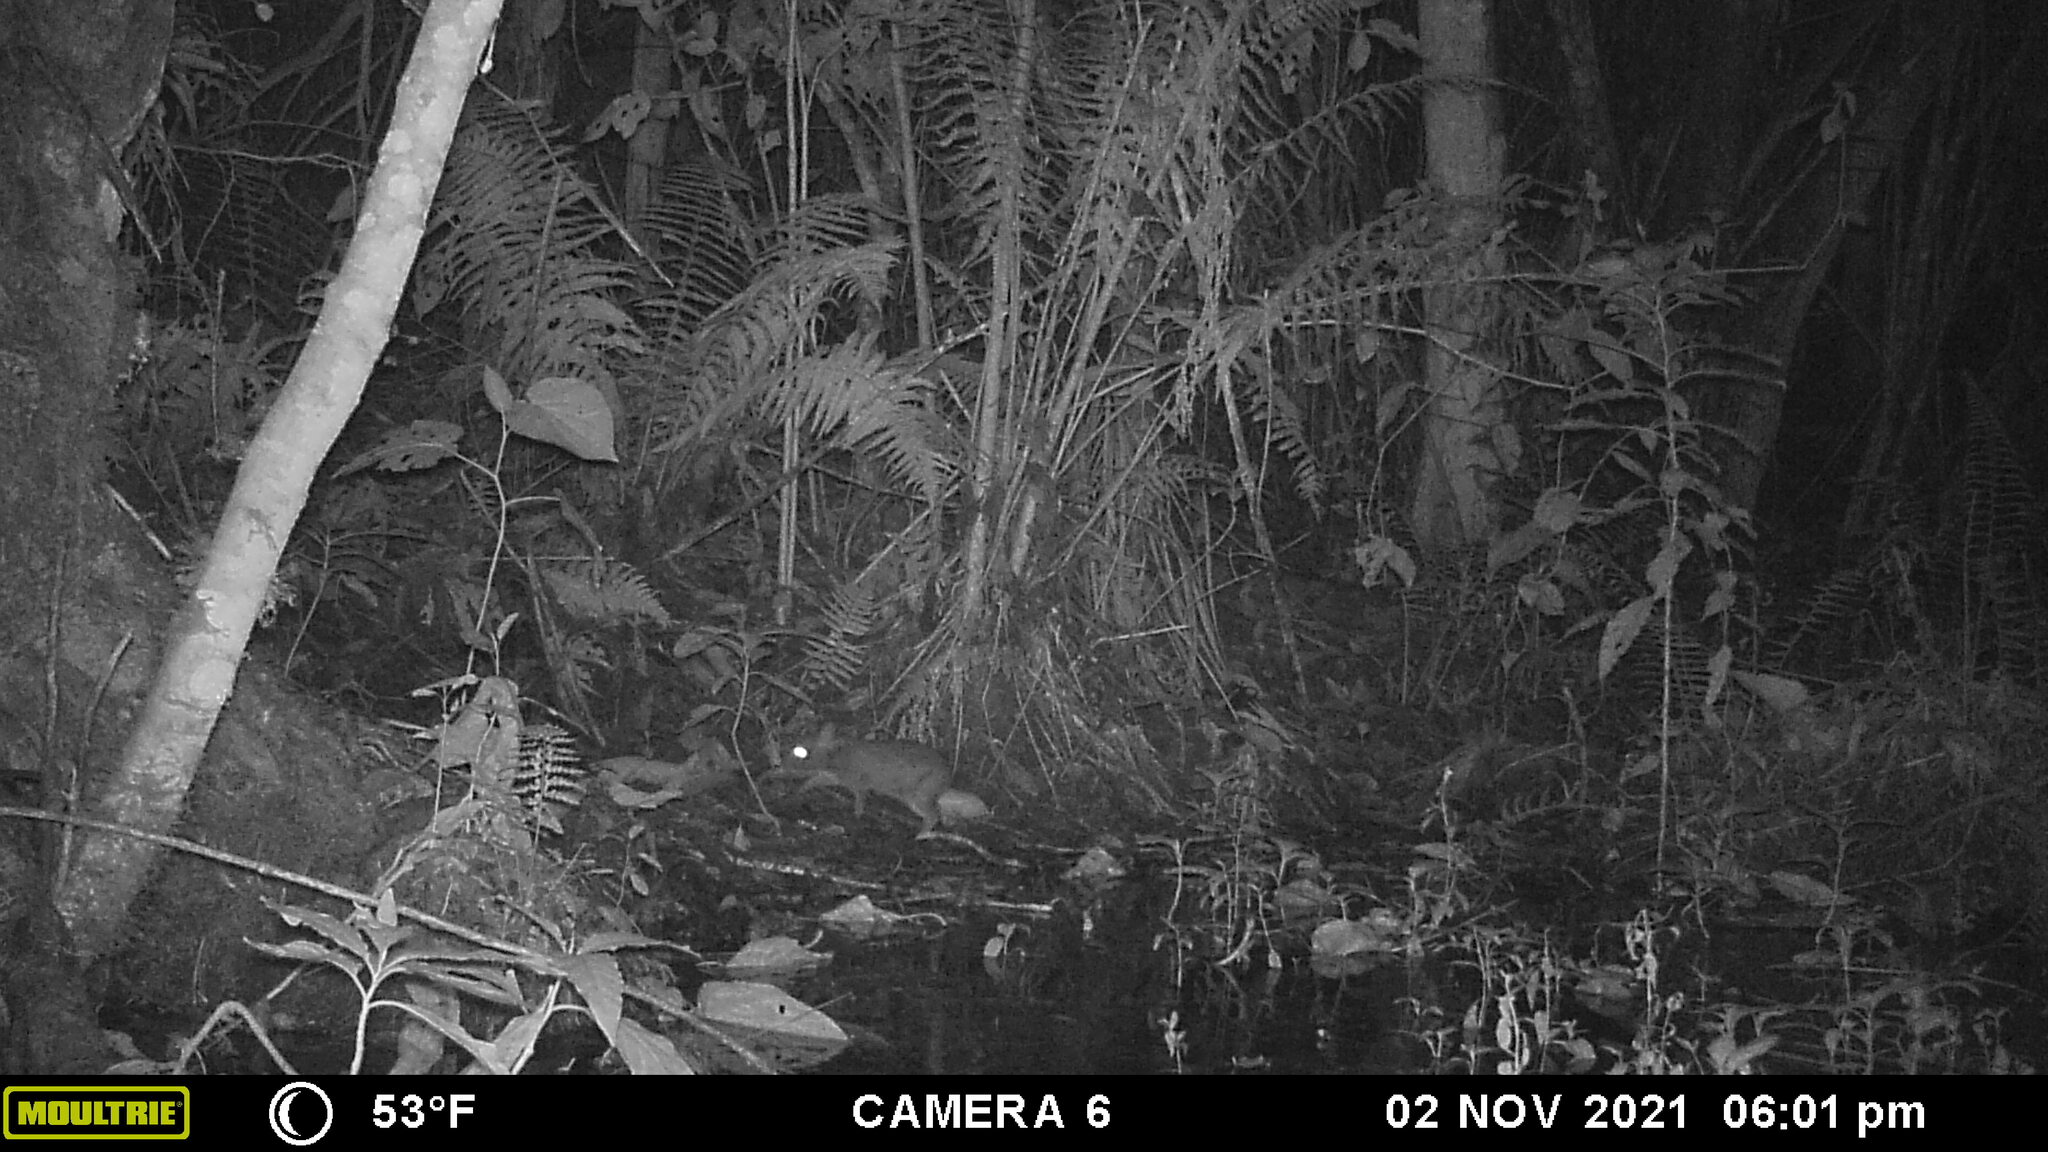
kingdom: Animalia
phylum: Chordata
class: Mammalia
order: Lagomorpha
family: Leporidae
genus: Sylvilagus
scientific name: Sylvilagus andinus
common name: Andean cottontail
